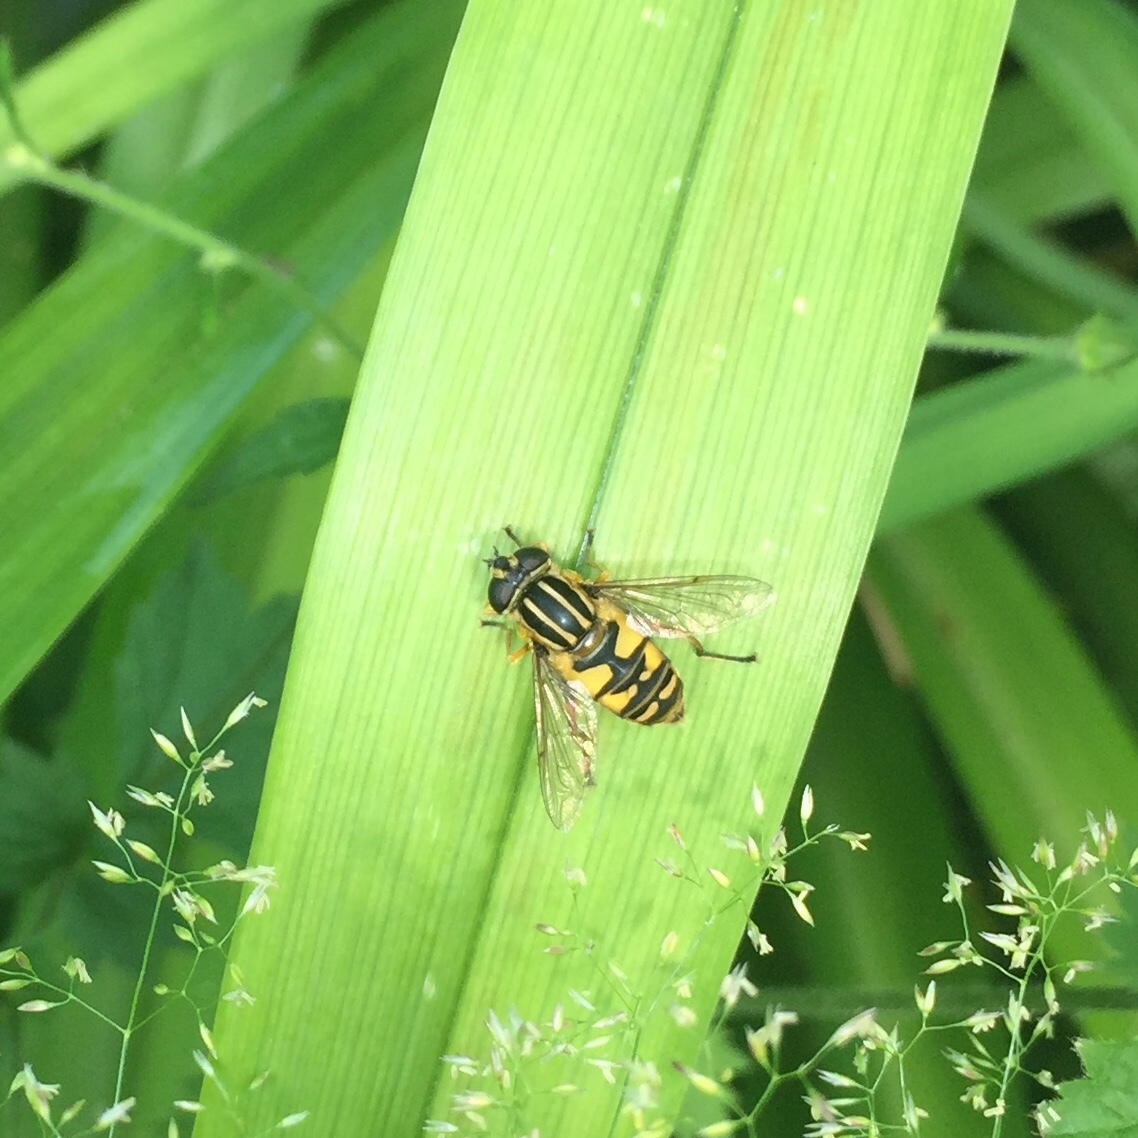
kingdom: Animalia
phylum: Arthropoda
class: Insecta
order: Diptera
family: Syrphidae
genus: Helophilus
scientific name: Helophilus pendulus
